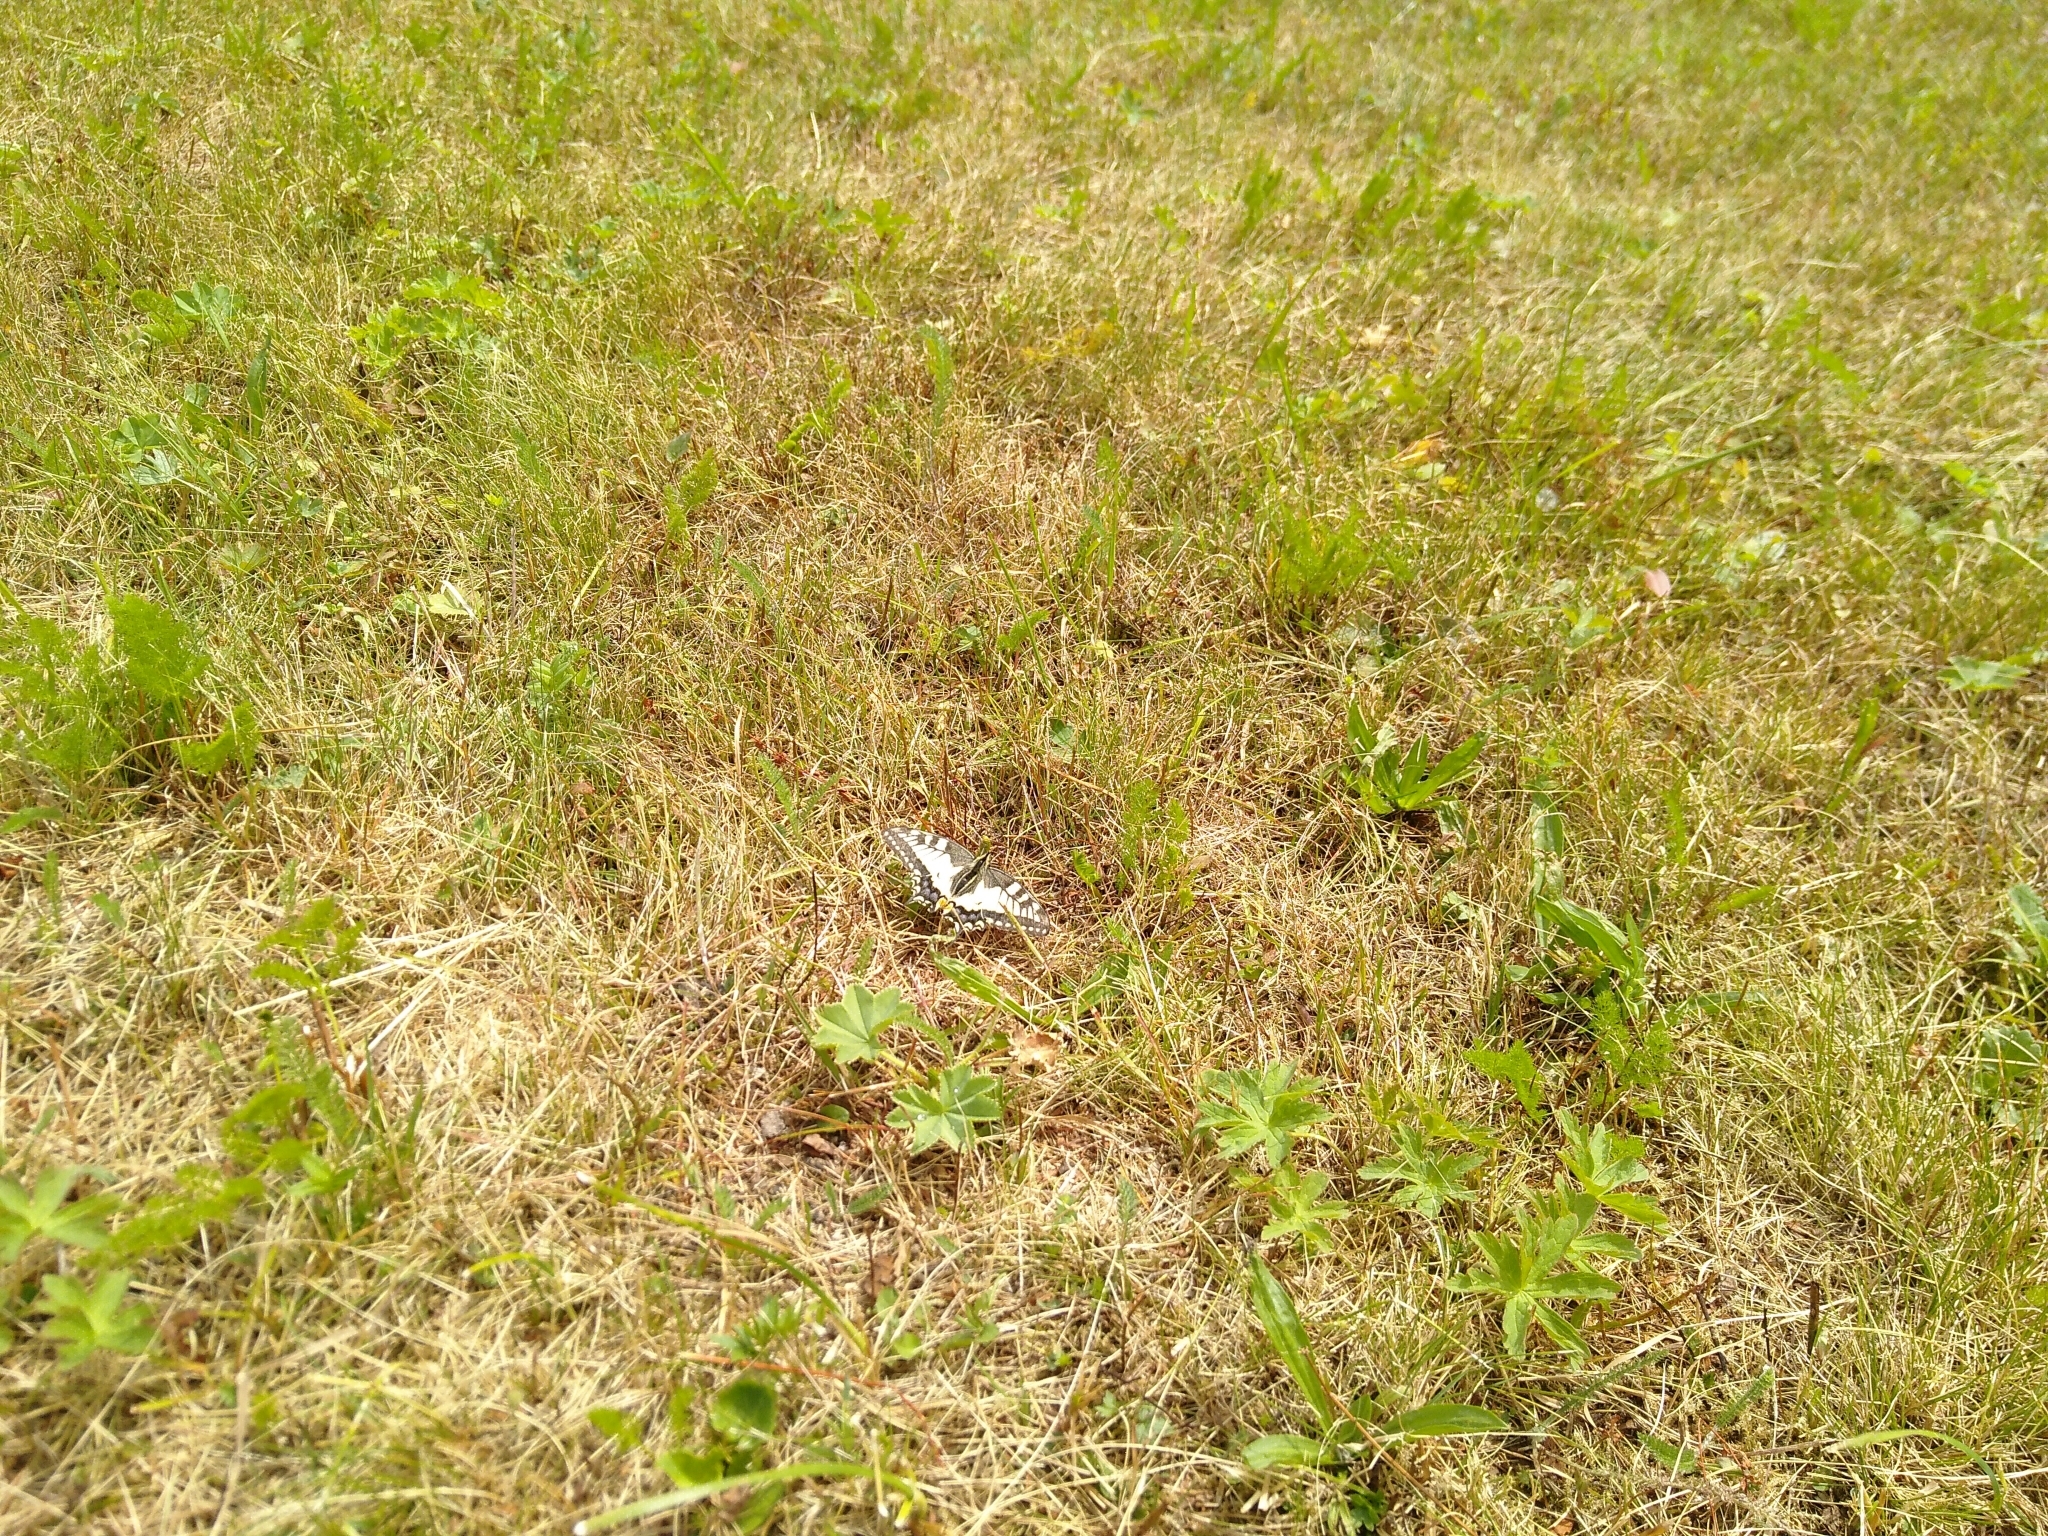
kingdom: Animalia
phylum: Arthropoda
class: Insecta
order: Lepidoptera
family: Papilionidae
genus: Papilio
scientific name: Papilio machaon
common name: Swallowtail
